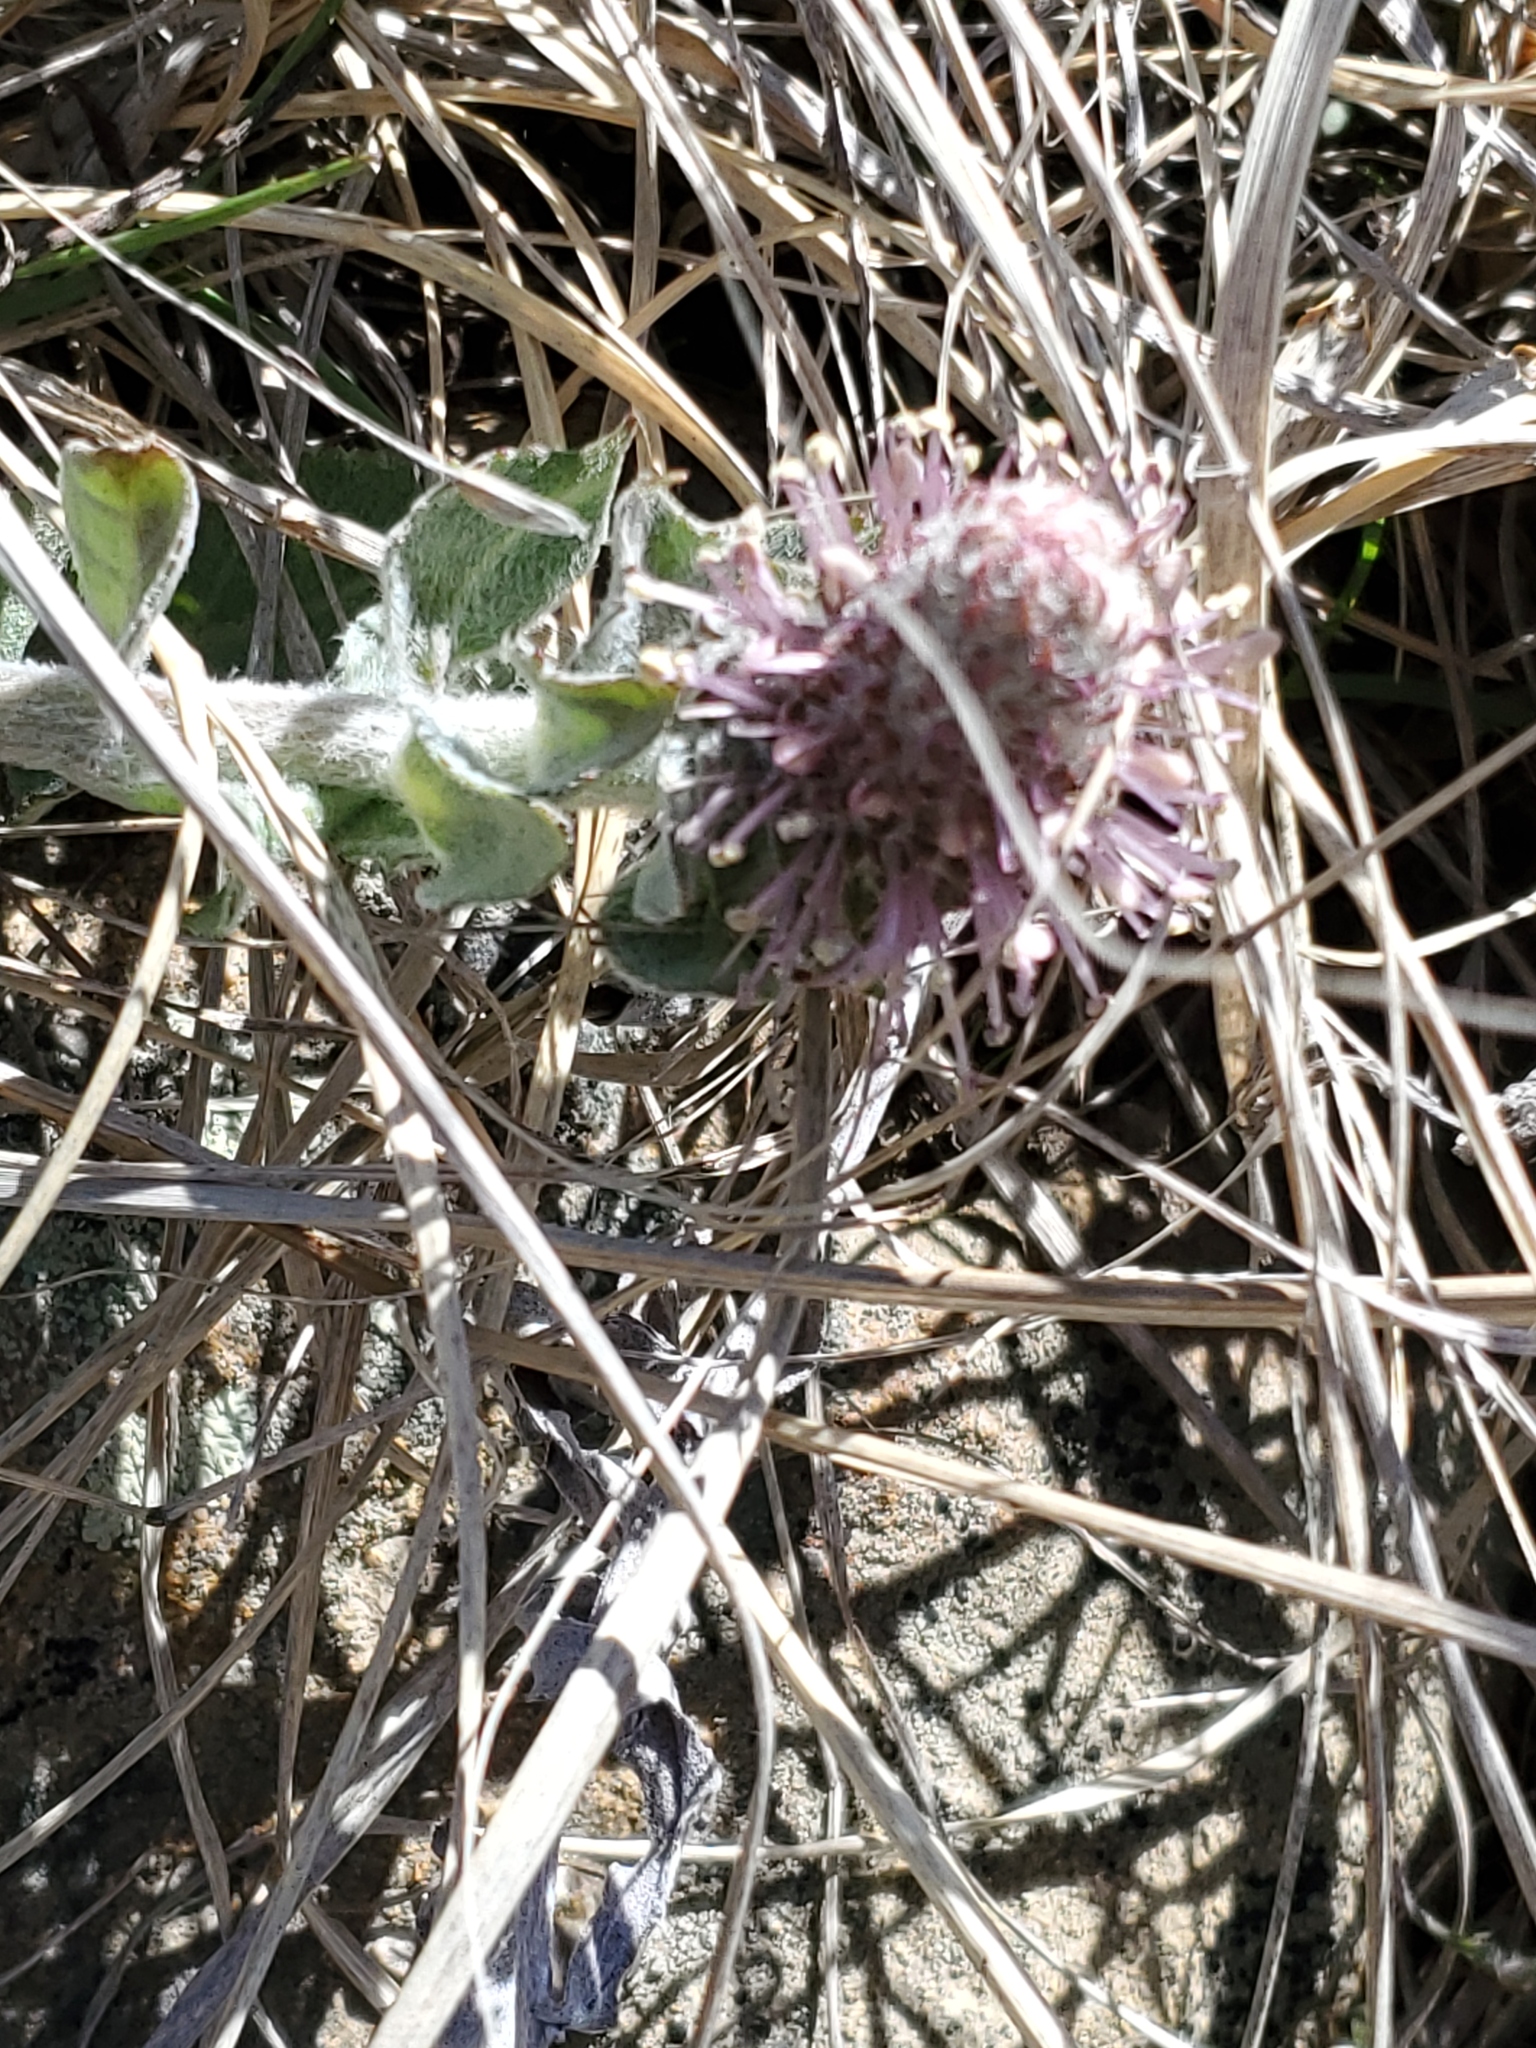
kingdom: Plantae
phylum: Tracheophyta
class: Magnoliopsida
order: Lamiales
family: Plantaginaceae
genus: Synthyris
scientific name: Synthyris wyomingensis
